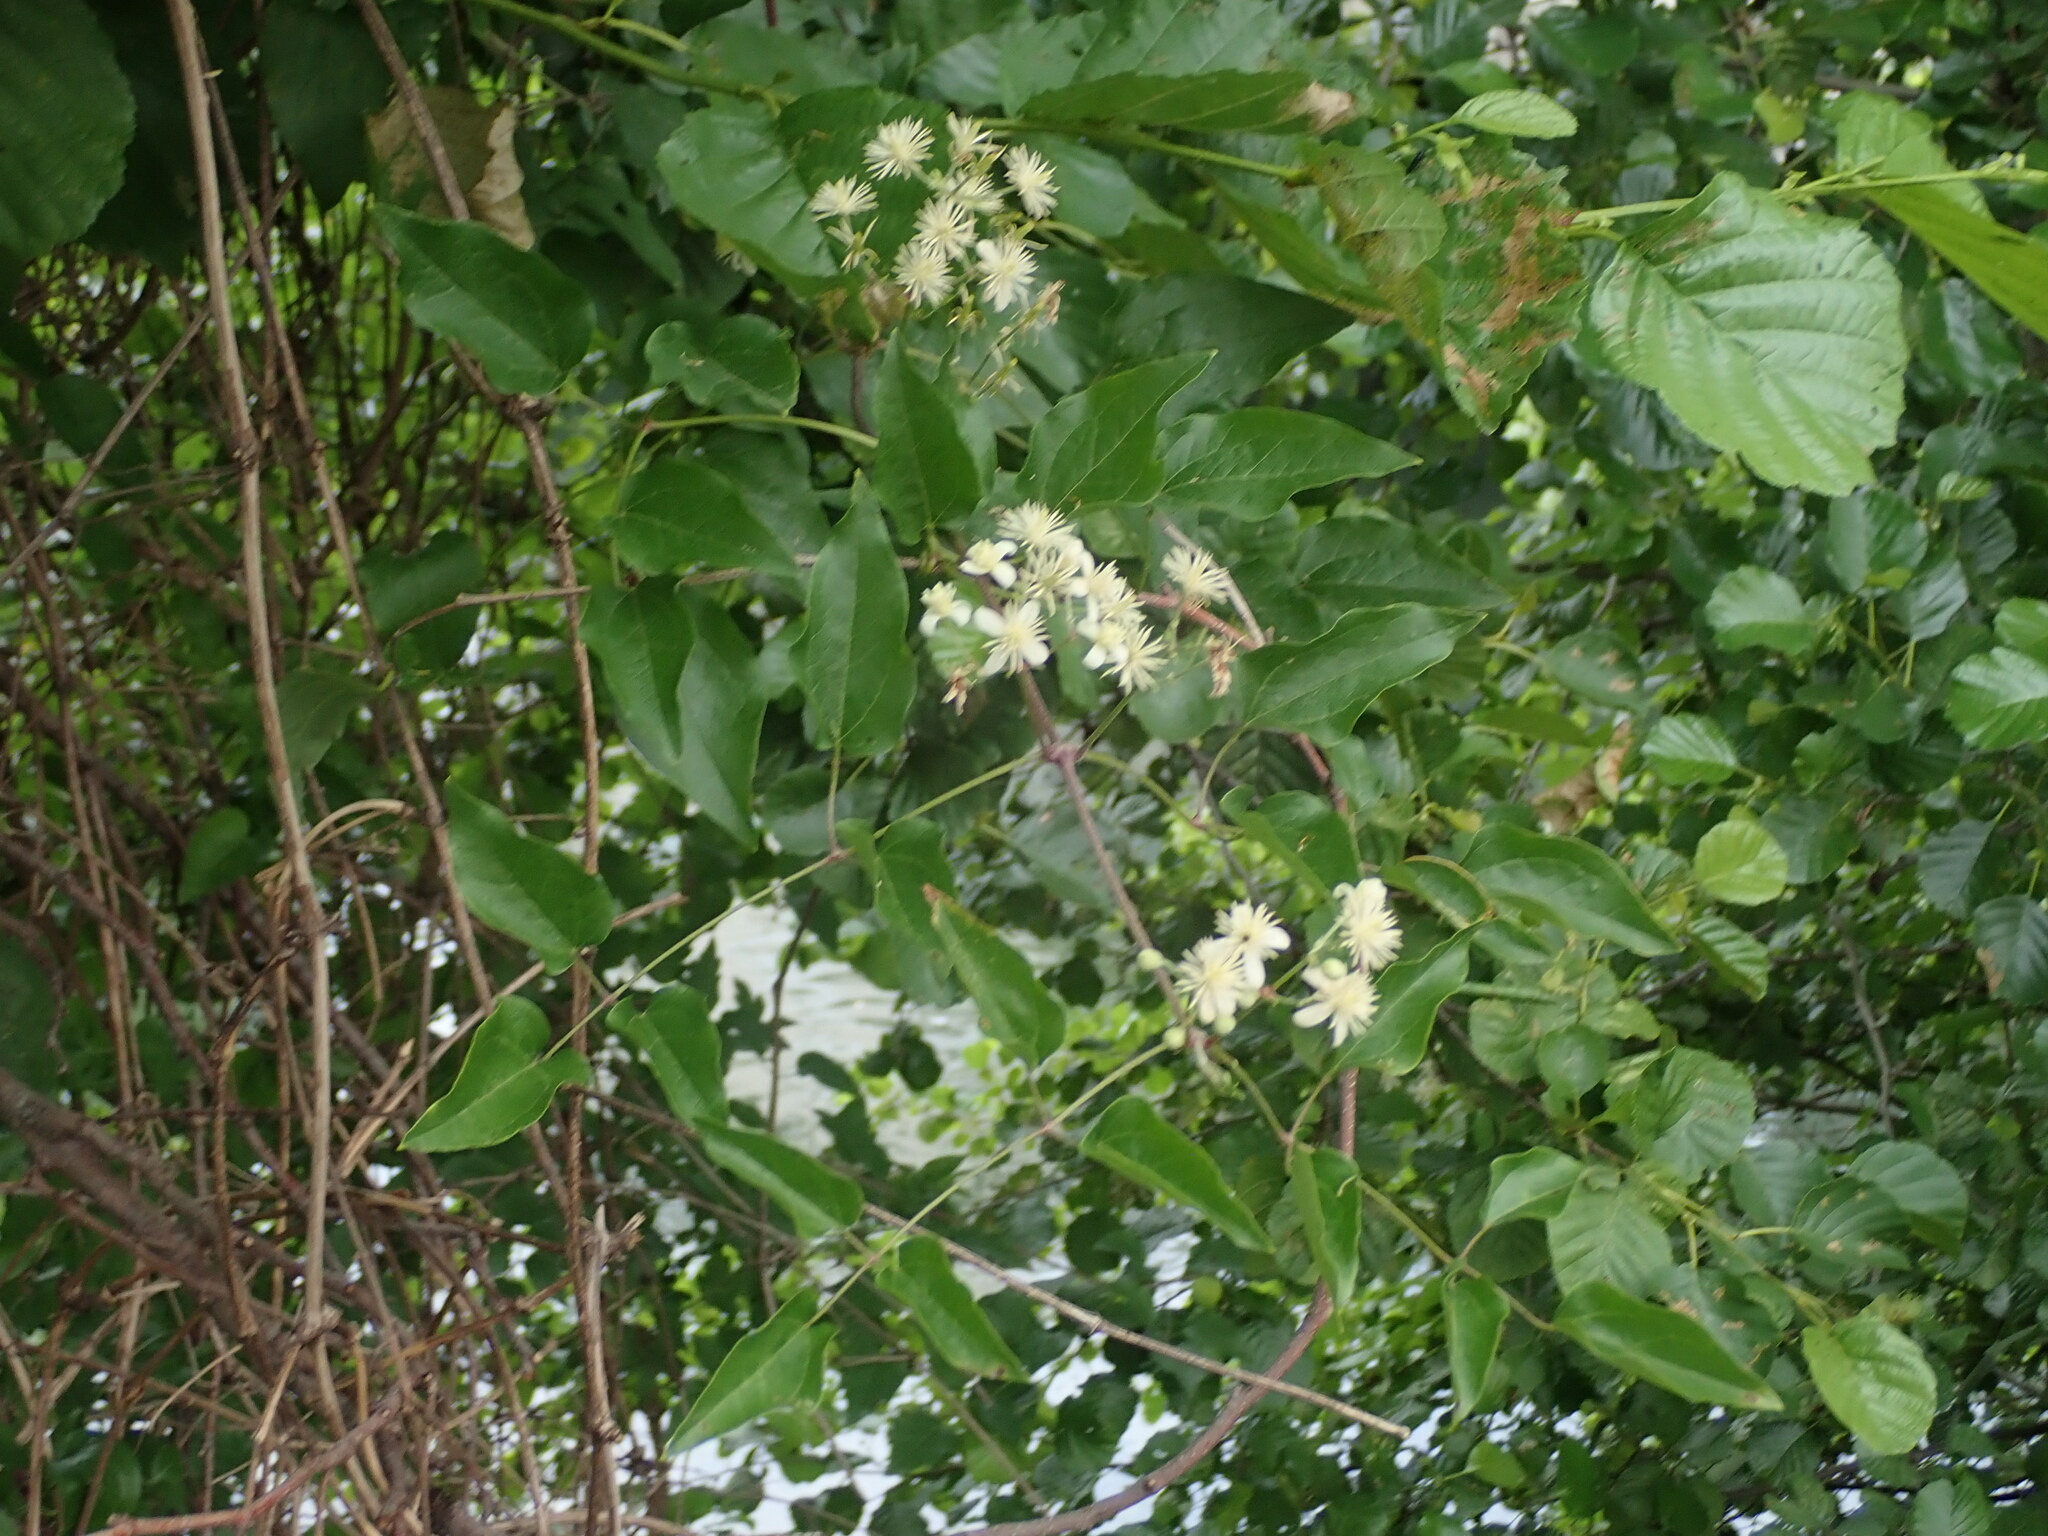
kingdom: Plantae
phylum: Tracheophyta
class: Magnoliopsida
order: Ranunculales
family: Ranunculaceae
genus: Clematis
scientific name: Clematis vitalba
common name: Evergreen clematis
